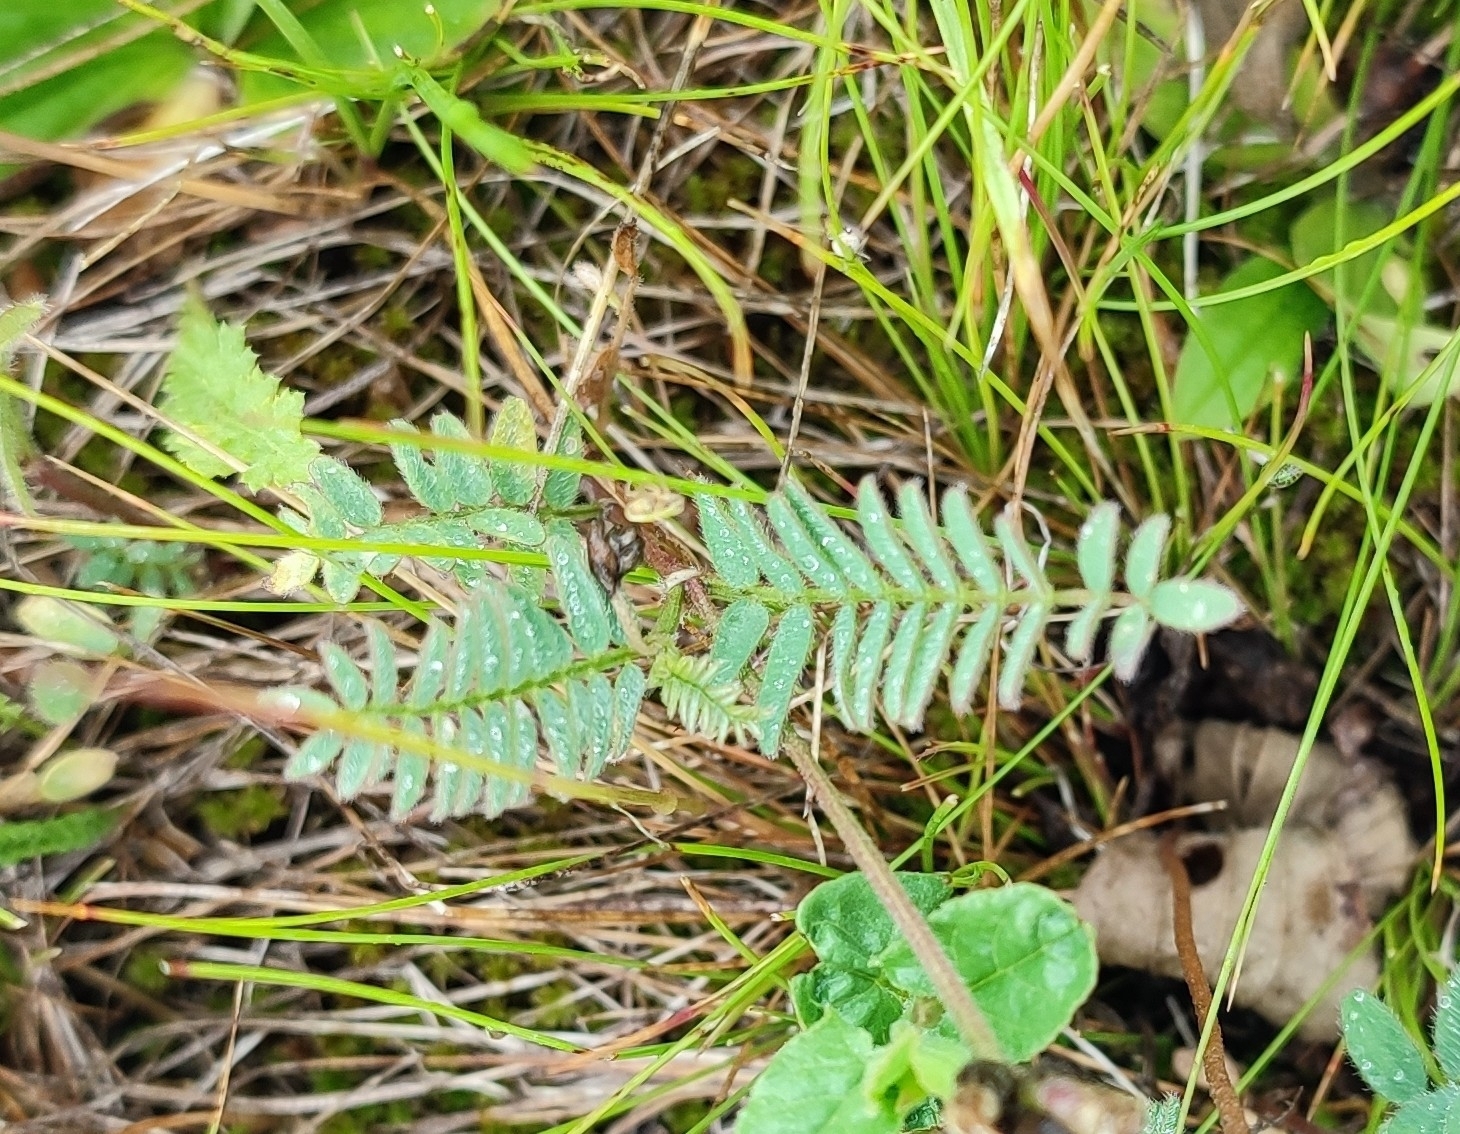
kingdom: Plantae
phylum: Tracheophyta
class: Magnoliopsida
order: Fabales
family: Fabaceae
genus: Astragalus
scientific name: Astragalus danicus
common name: Purple milk-vetch
